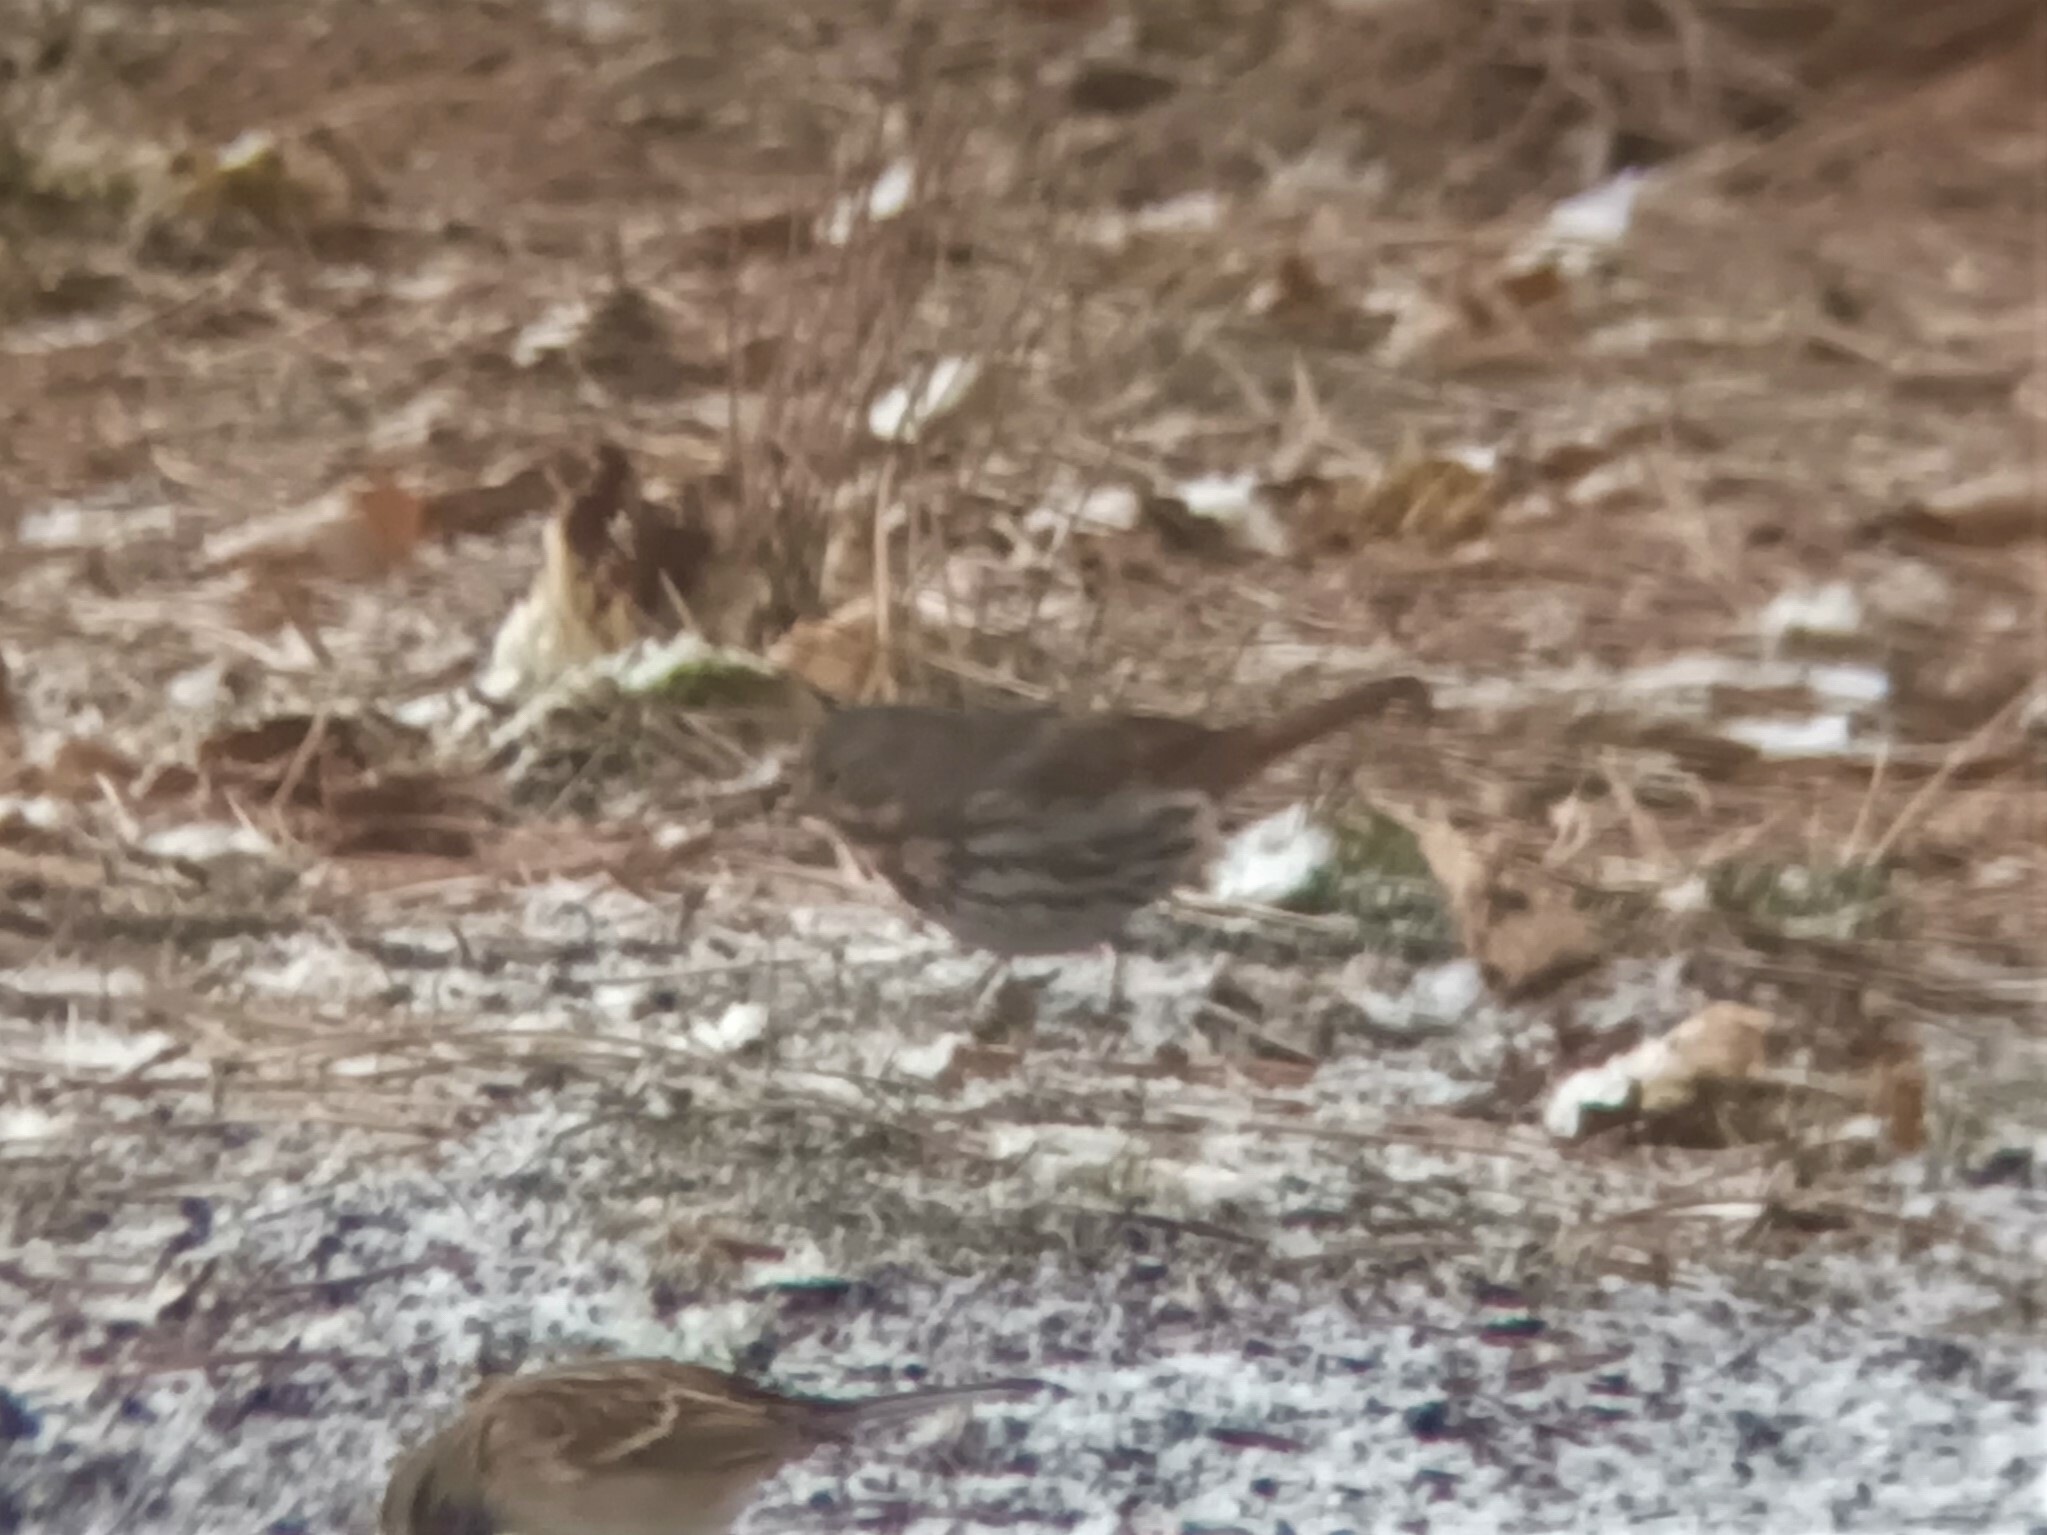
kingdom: Animalia
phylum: Chordata
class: Aves
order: Passeriformes
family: Passerellidae
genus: Passerella
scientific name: Passerella iliaca
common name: Fox sparrow
